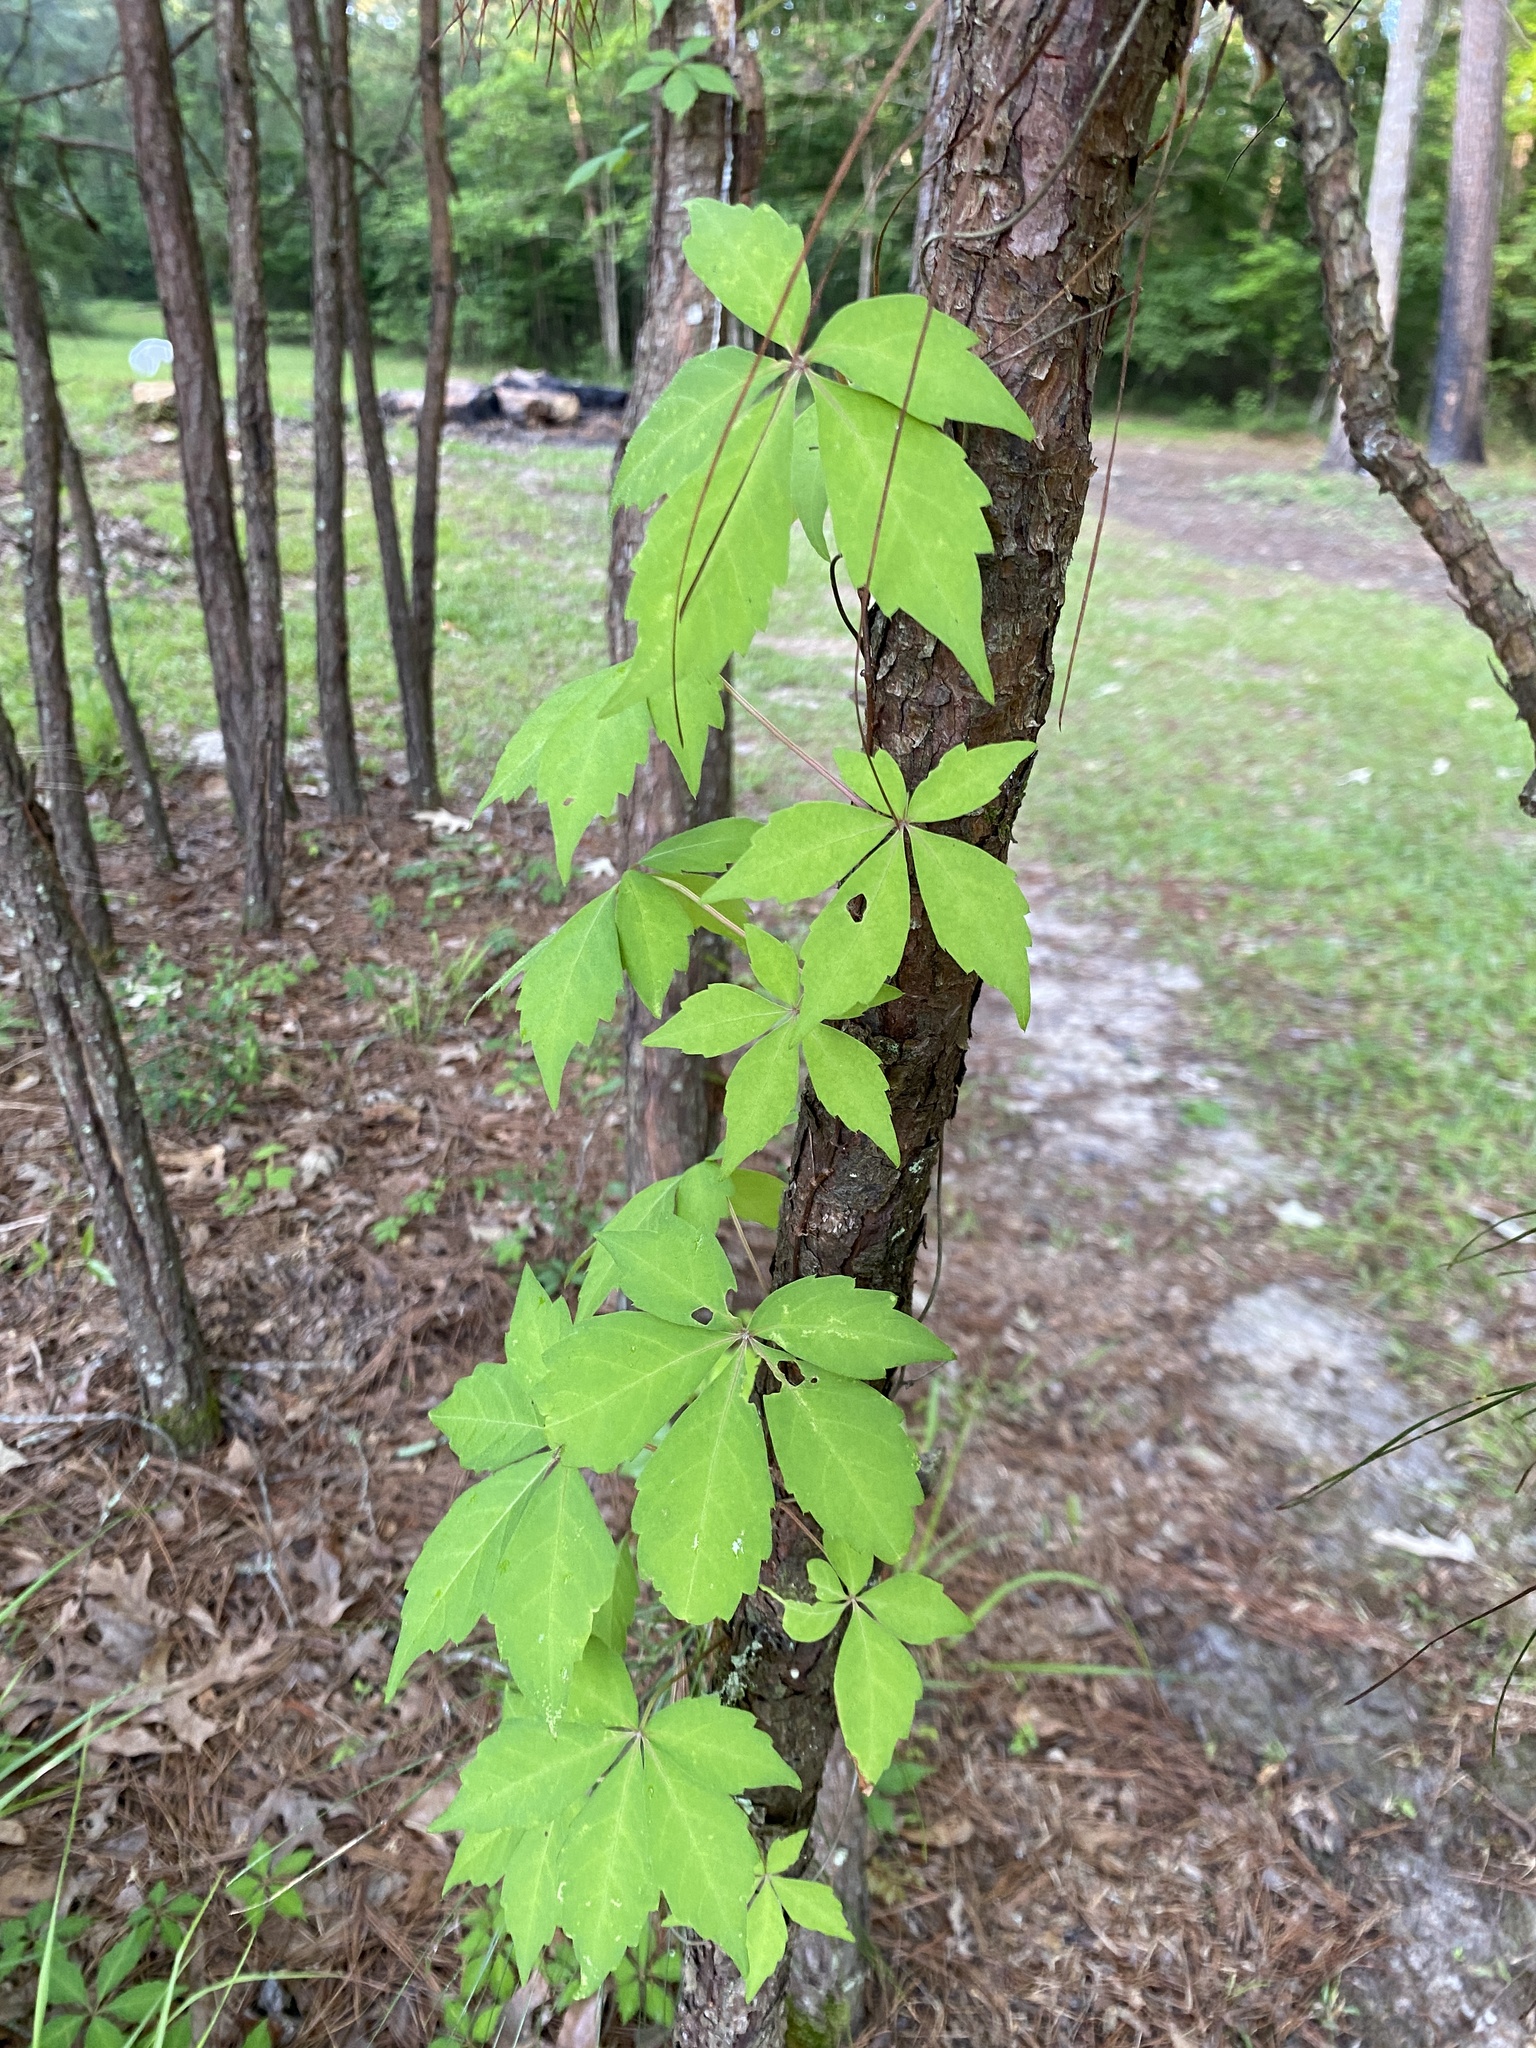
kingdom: Plantae
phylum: Tracheophyta
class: Magnoliopsida
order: Vitales
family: Vitaceae
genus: Parthenocissus
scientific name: Parthenocissus quinquefolia
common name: Virginia-creeper
